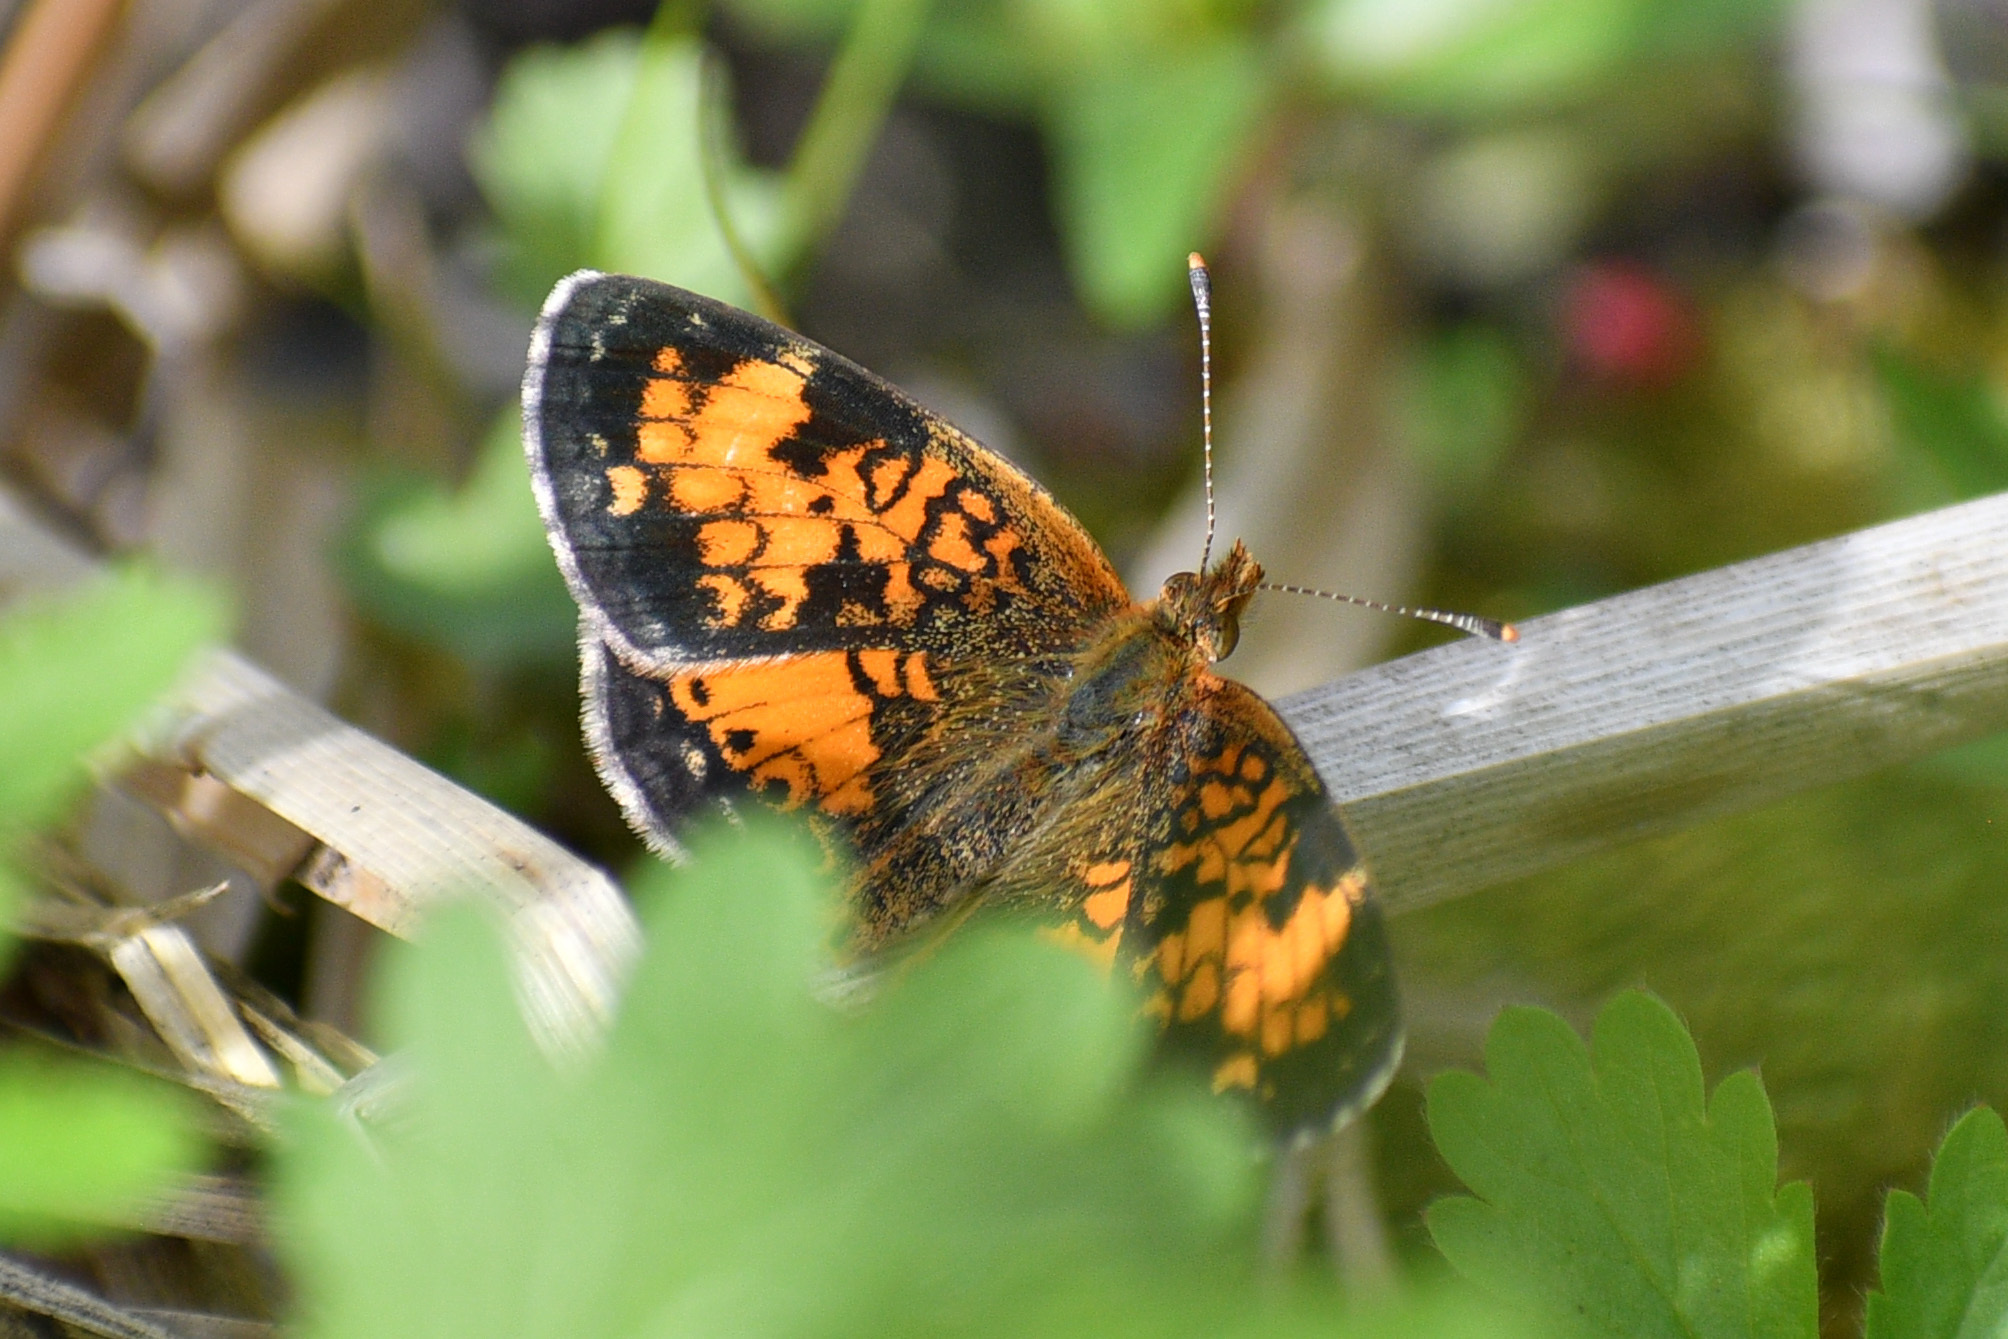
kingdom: Animalia
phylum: Arthropoda
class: Insecta
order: Lepidoptera
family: Nymphalidae
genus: Phyciodes
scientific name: Phyciodes tharos
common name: Pearl crescent
